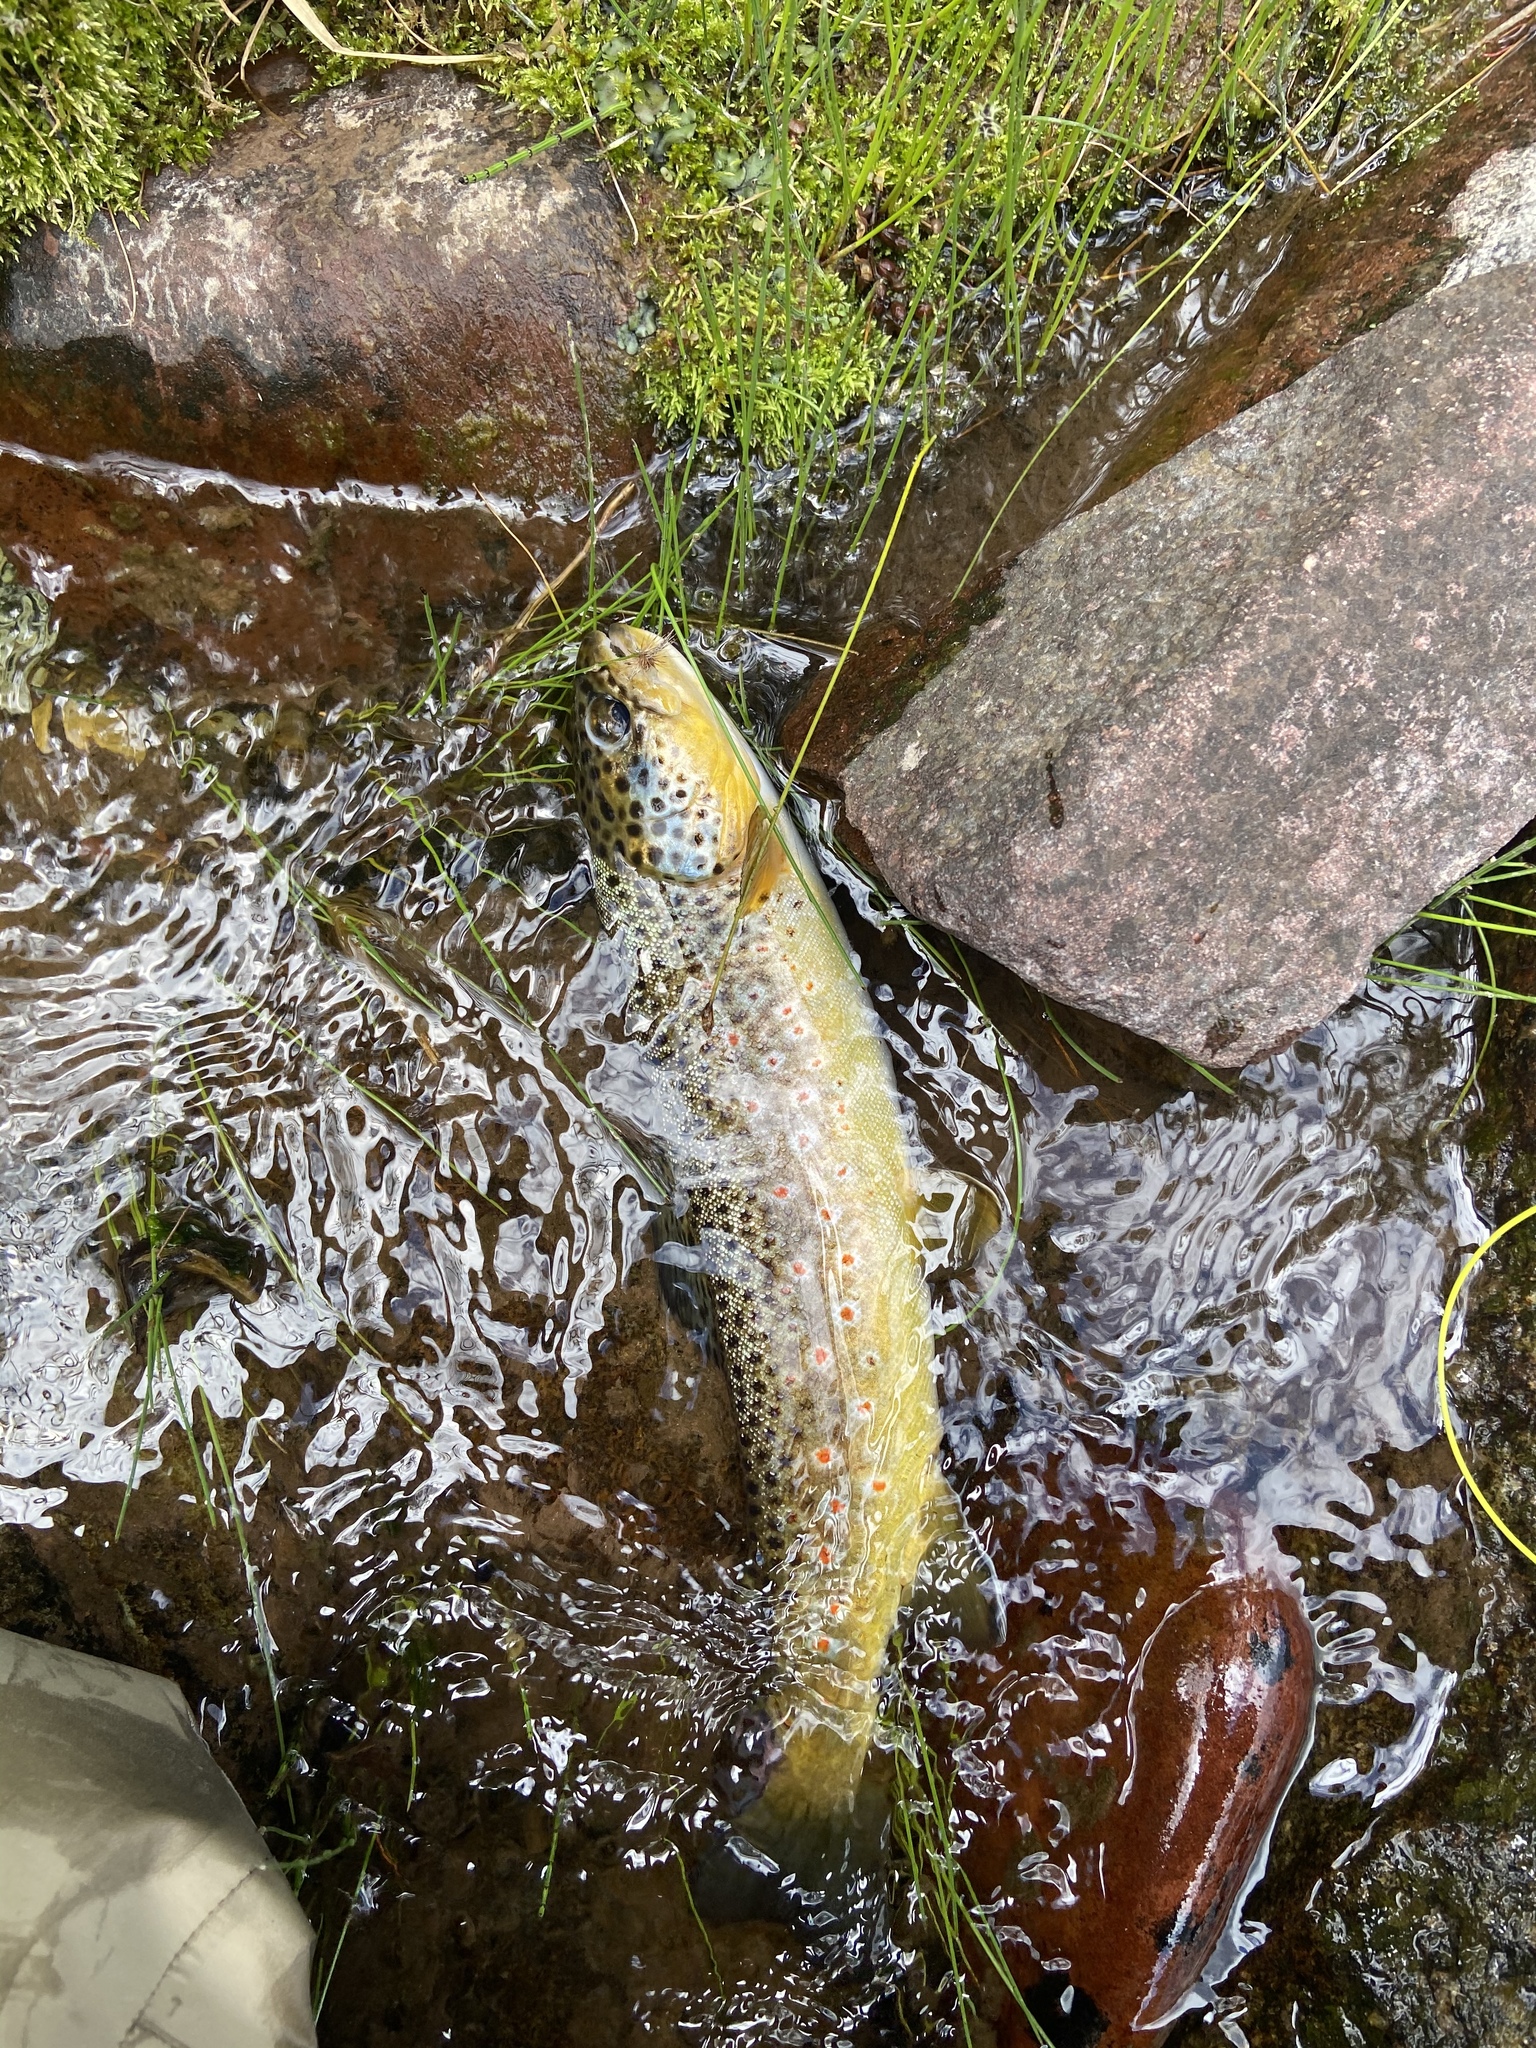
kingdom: Animalia
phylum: Chordata
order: Salmoniformes
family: Salmonidae
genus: Salmo
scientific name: Salmo trutta
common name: Brown trout
